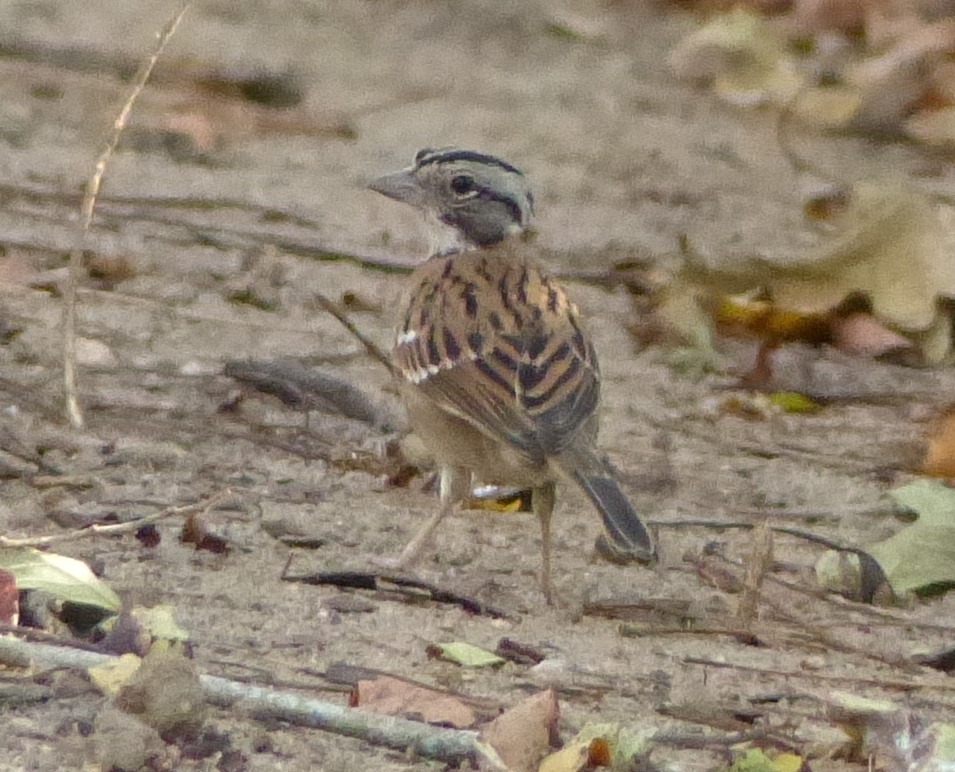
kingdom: Animalia
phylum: Chordata
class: Aves
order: Passeriformes
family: Passerellidae
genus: Zonotrichia
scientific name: Zonotrichia capensis
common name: Rufous-collared sparrow
